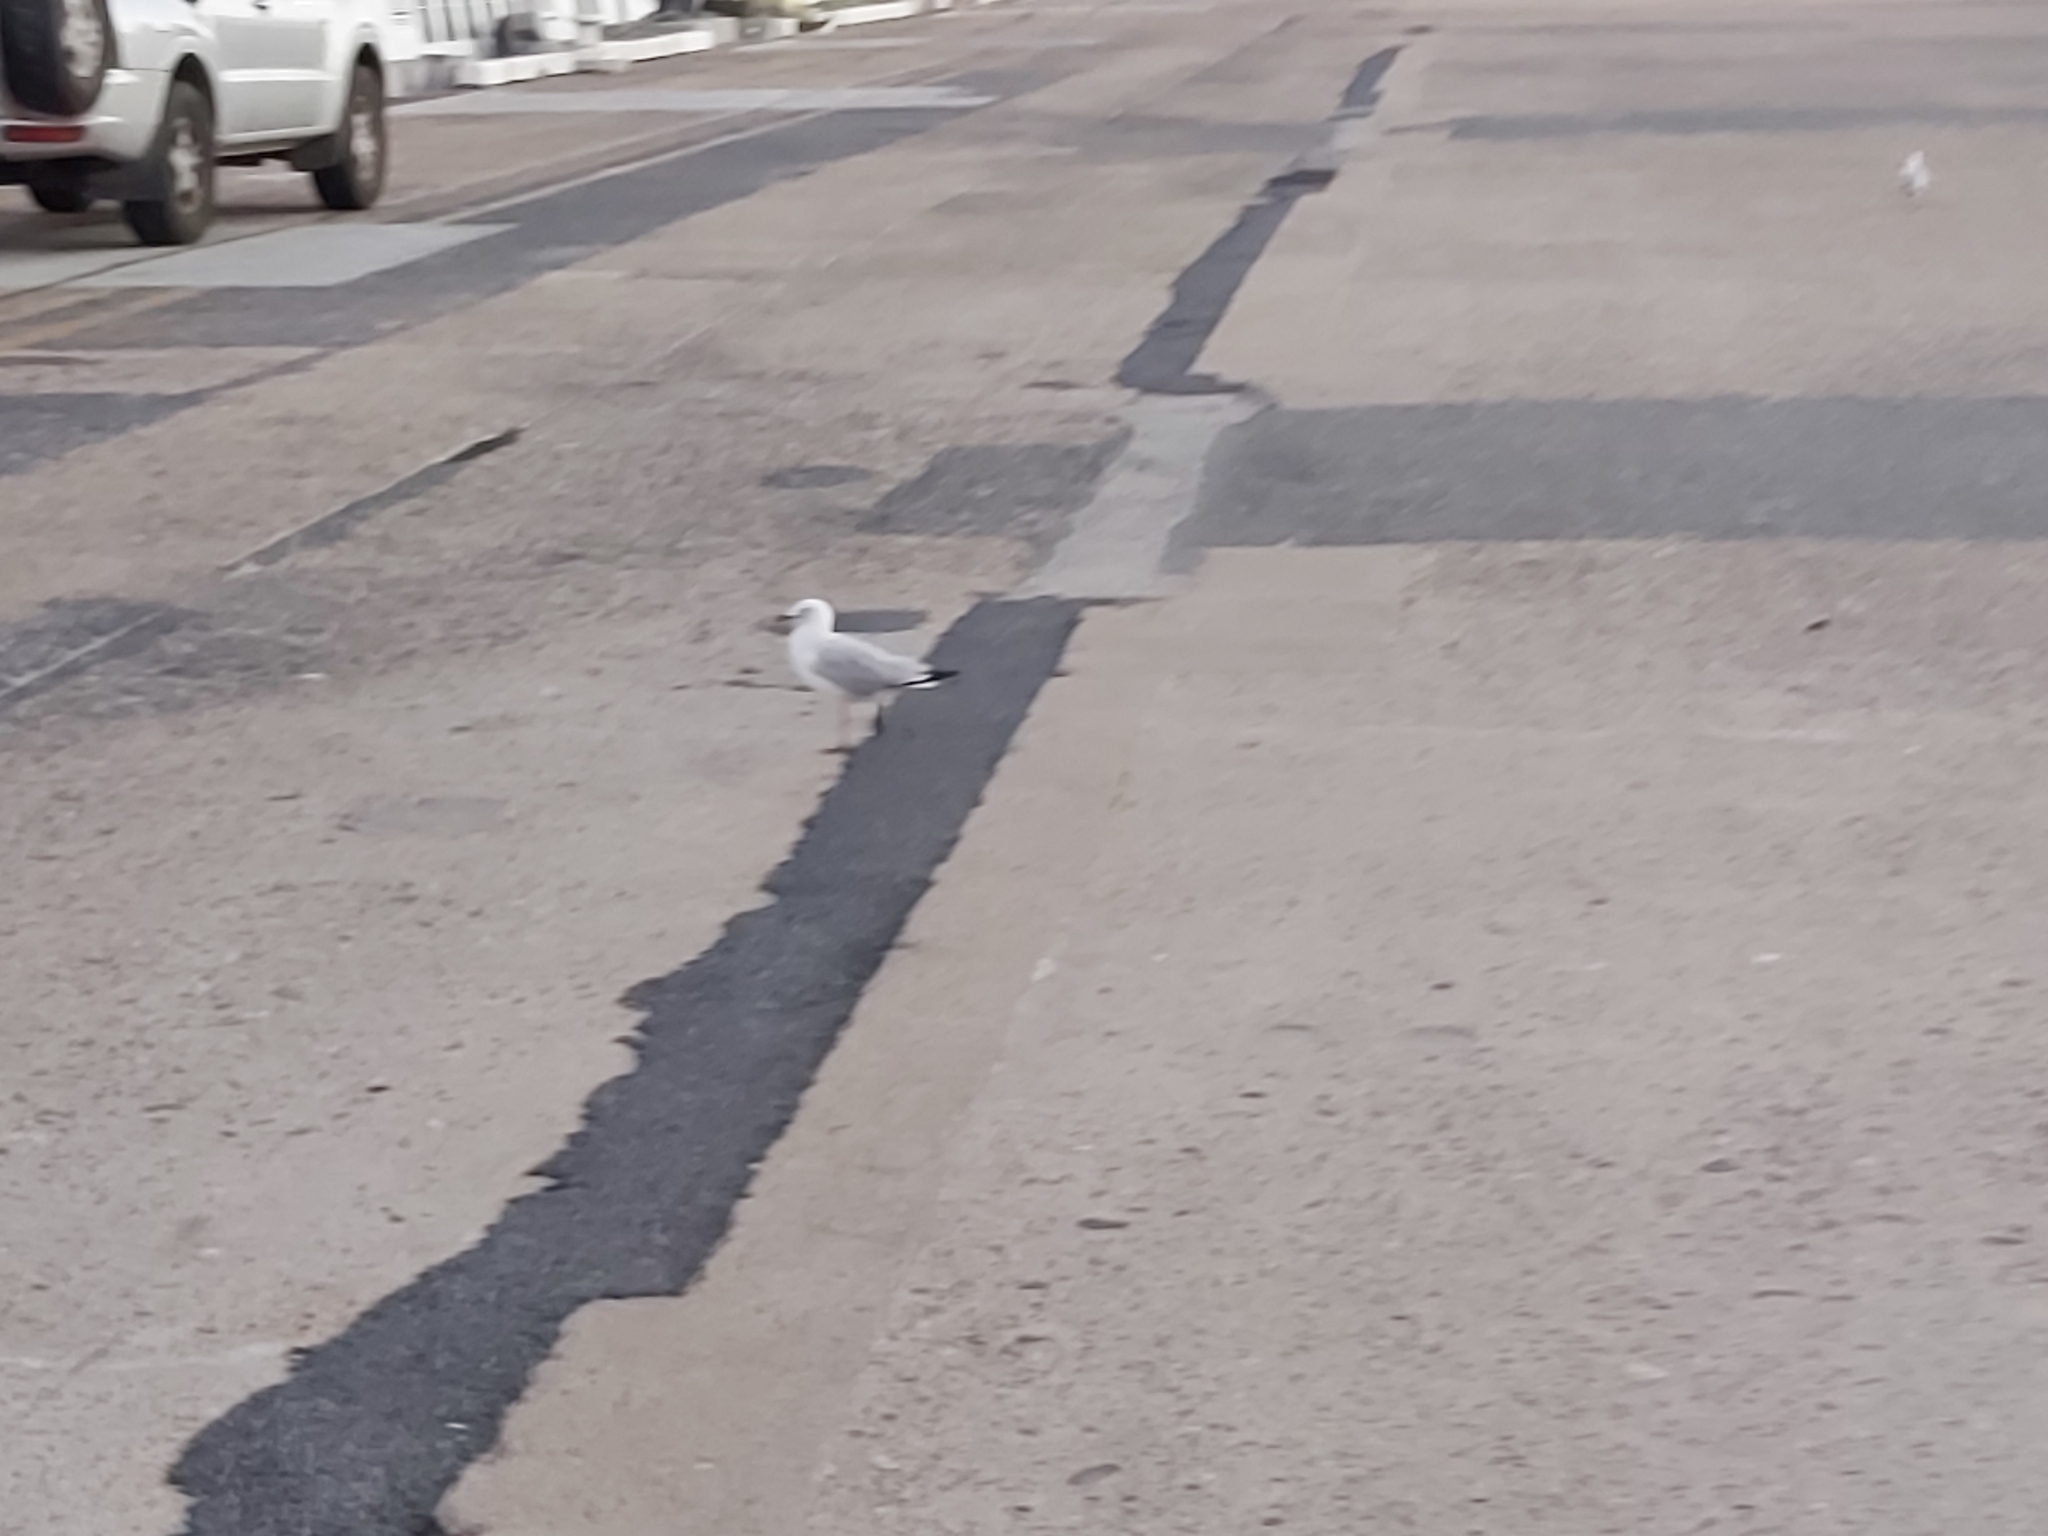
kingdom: Animalia
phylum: Chordata
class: Aves
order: Charadriiformes
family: Laridae
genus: Chroicocephalus
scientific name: Chroicocephalus novaehollandiae
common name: Silver gull
